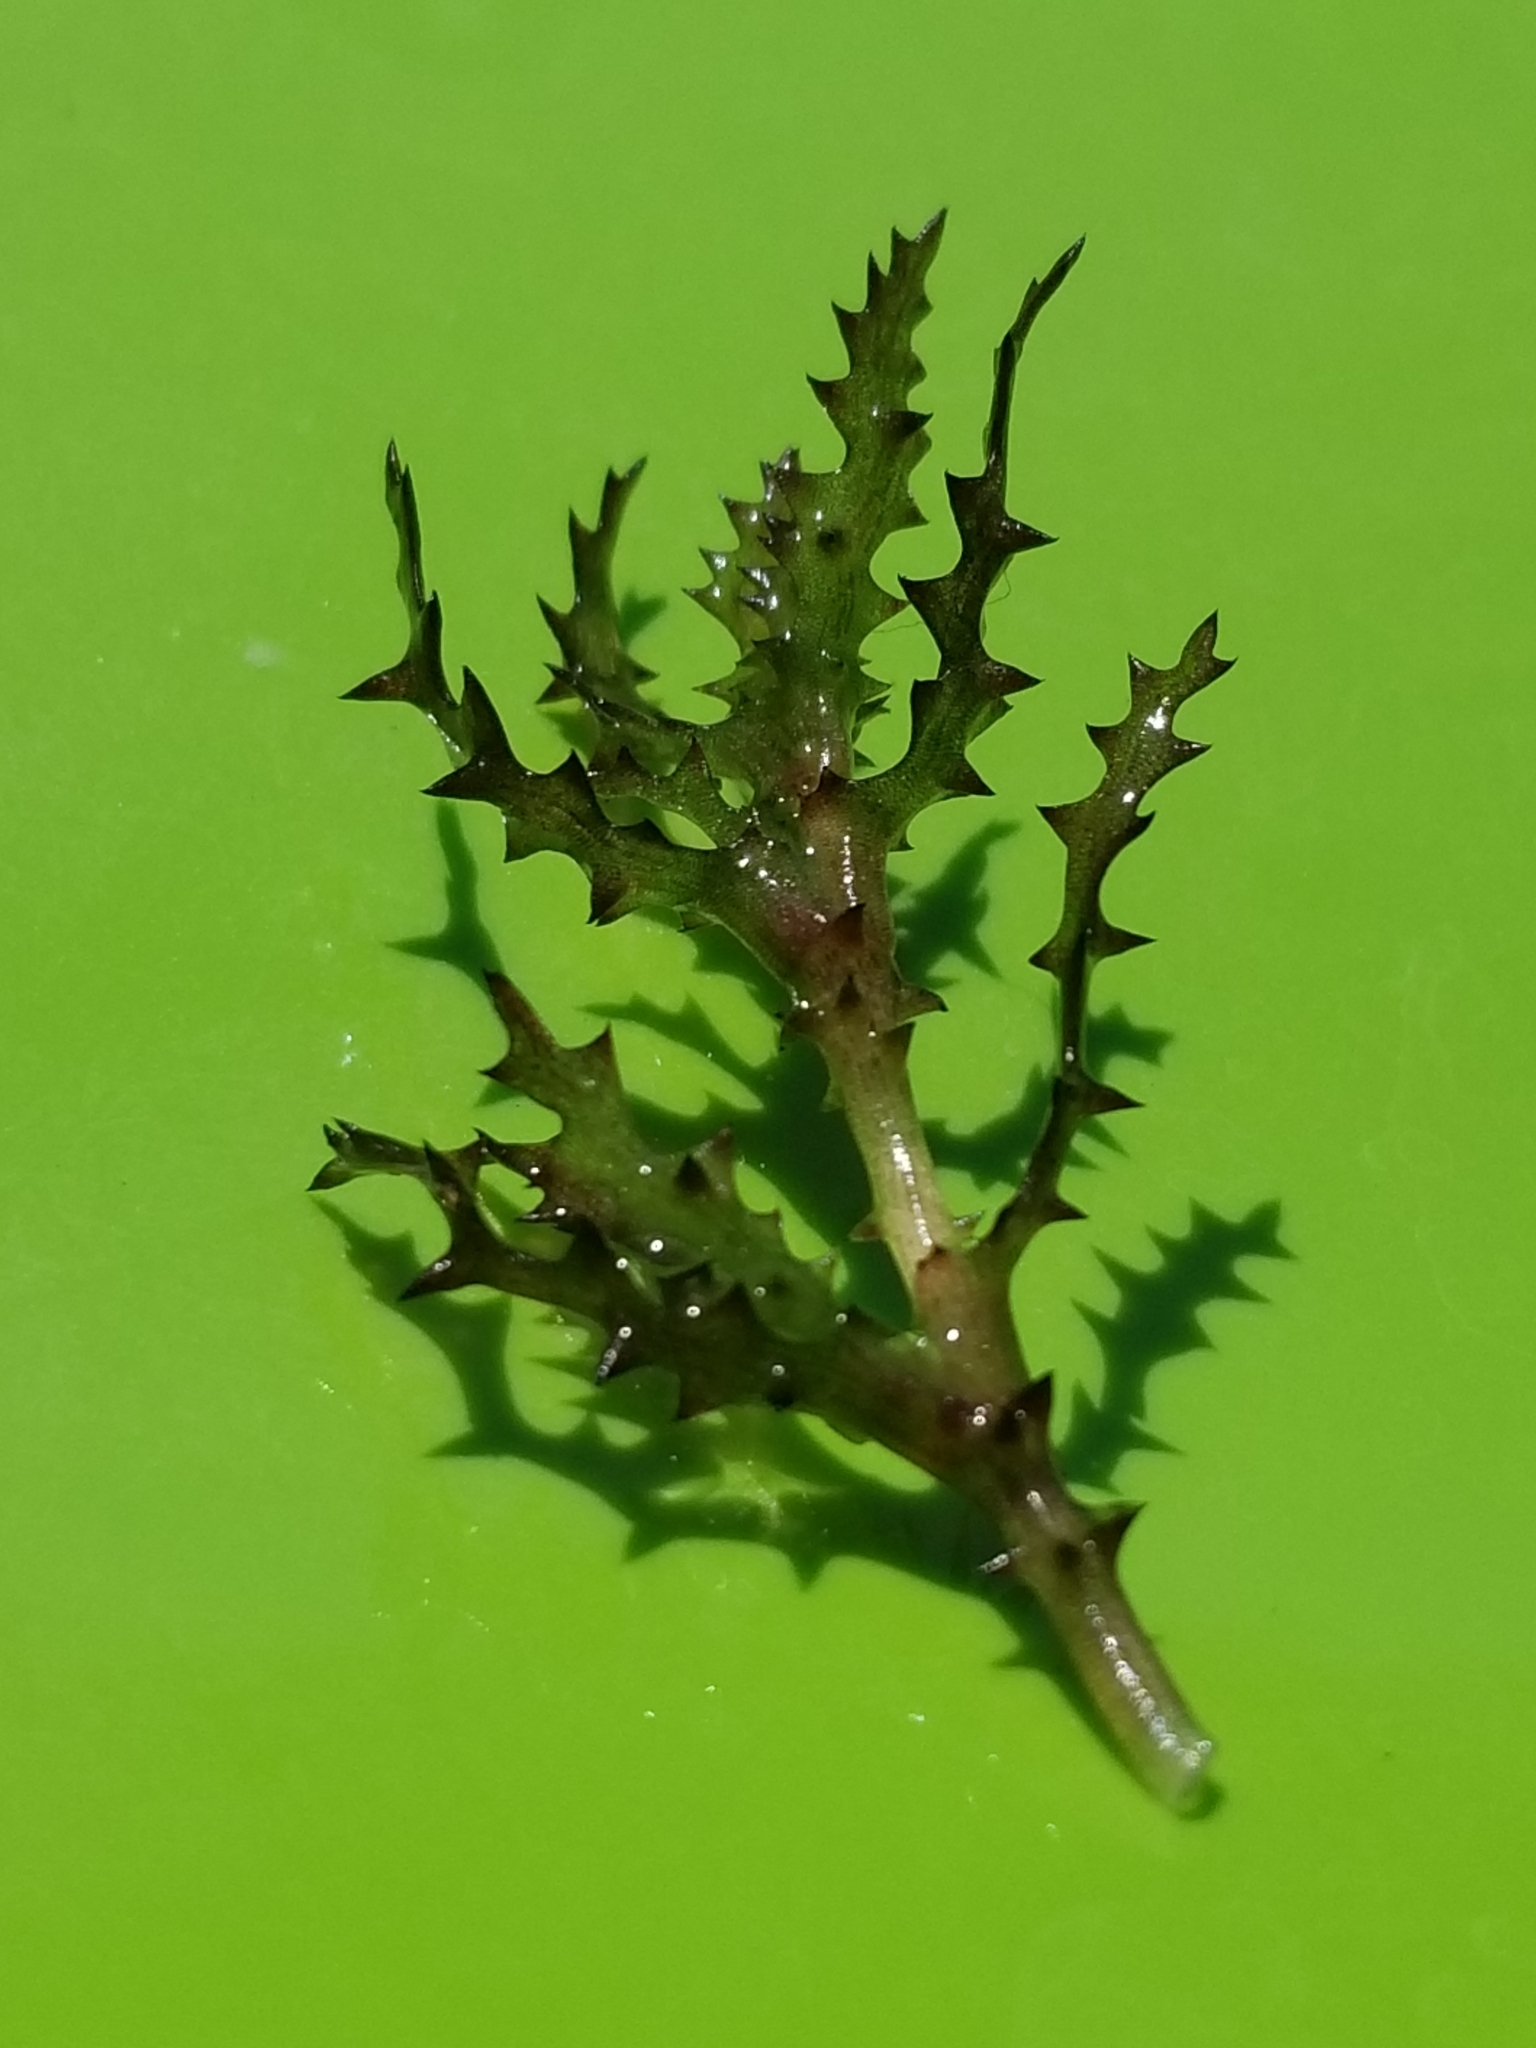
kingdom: Plantae
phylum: Tracheophyta
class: Liliopsida
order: Alismatales
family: Hydrocharitaceae
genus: Najas
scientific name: Najas marina
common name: Holly-leaved naiad
